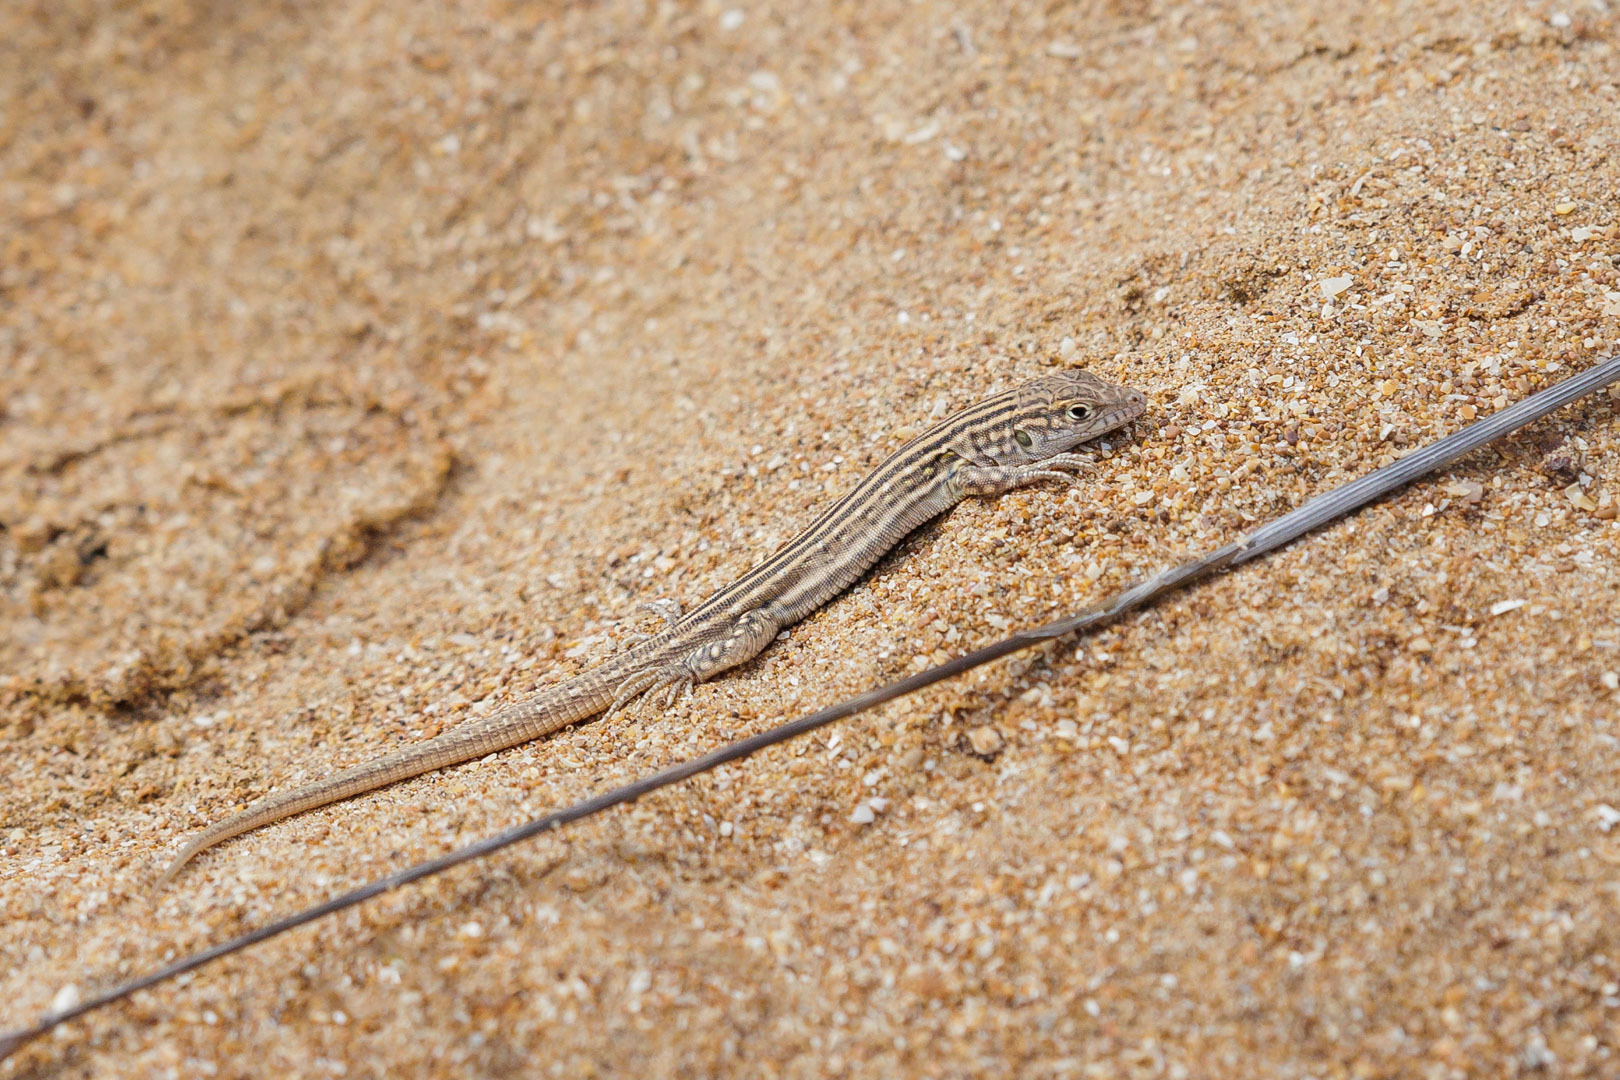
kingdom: Animalia
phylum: Chordata
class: Squamata
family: Lacertidae
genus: Eremias
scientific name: Eremias velox
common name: Central asian racerunner
